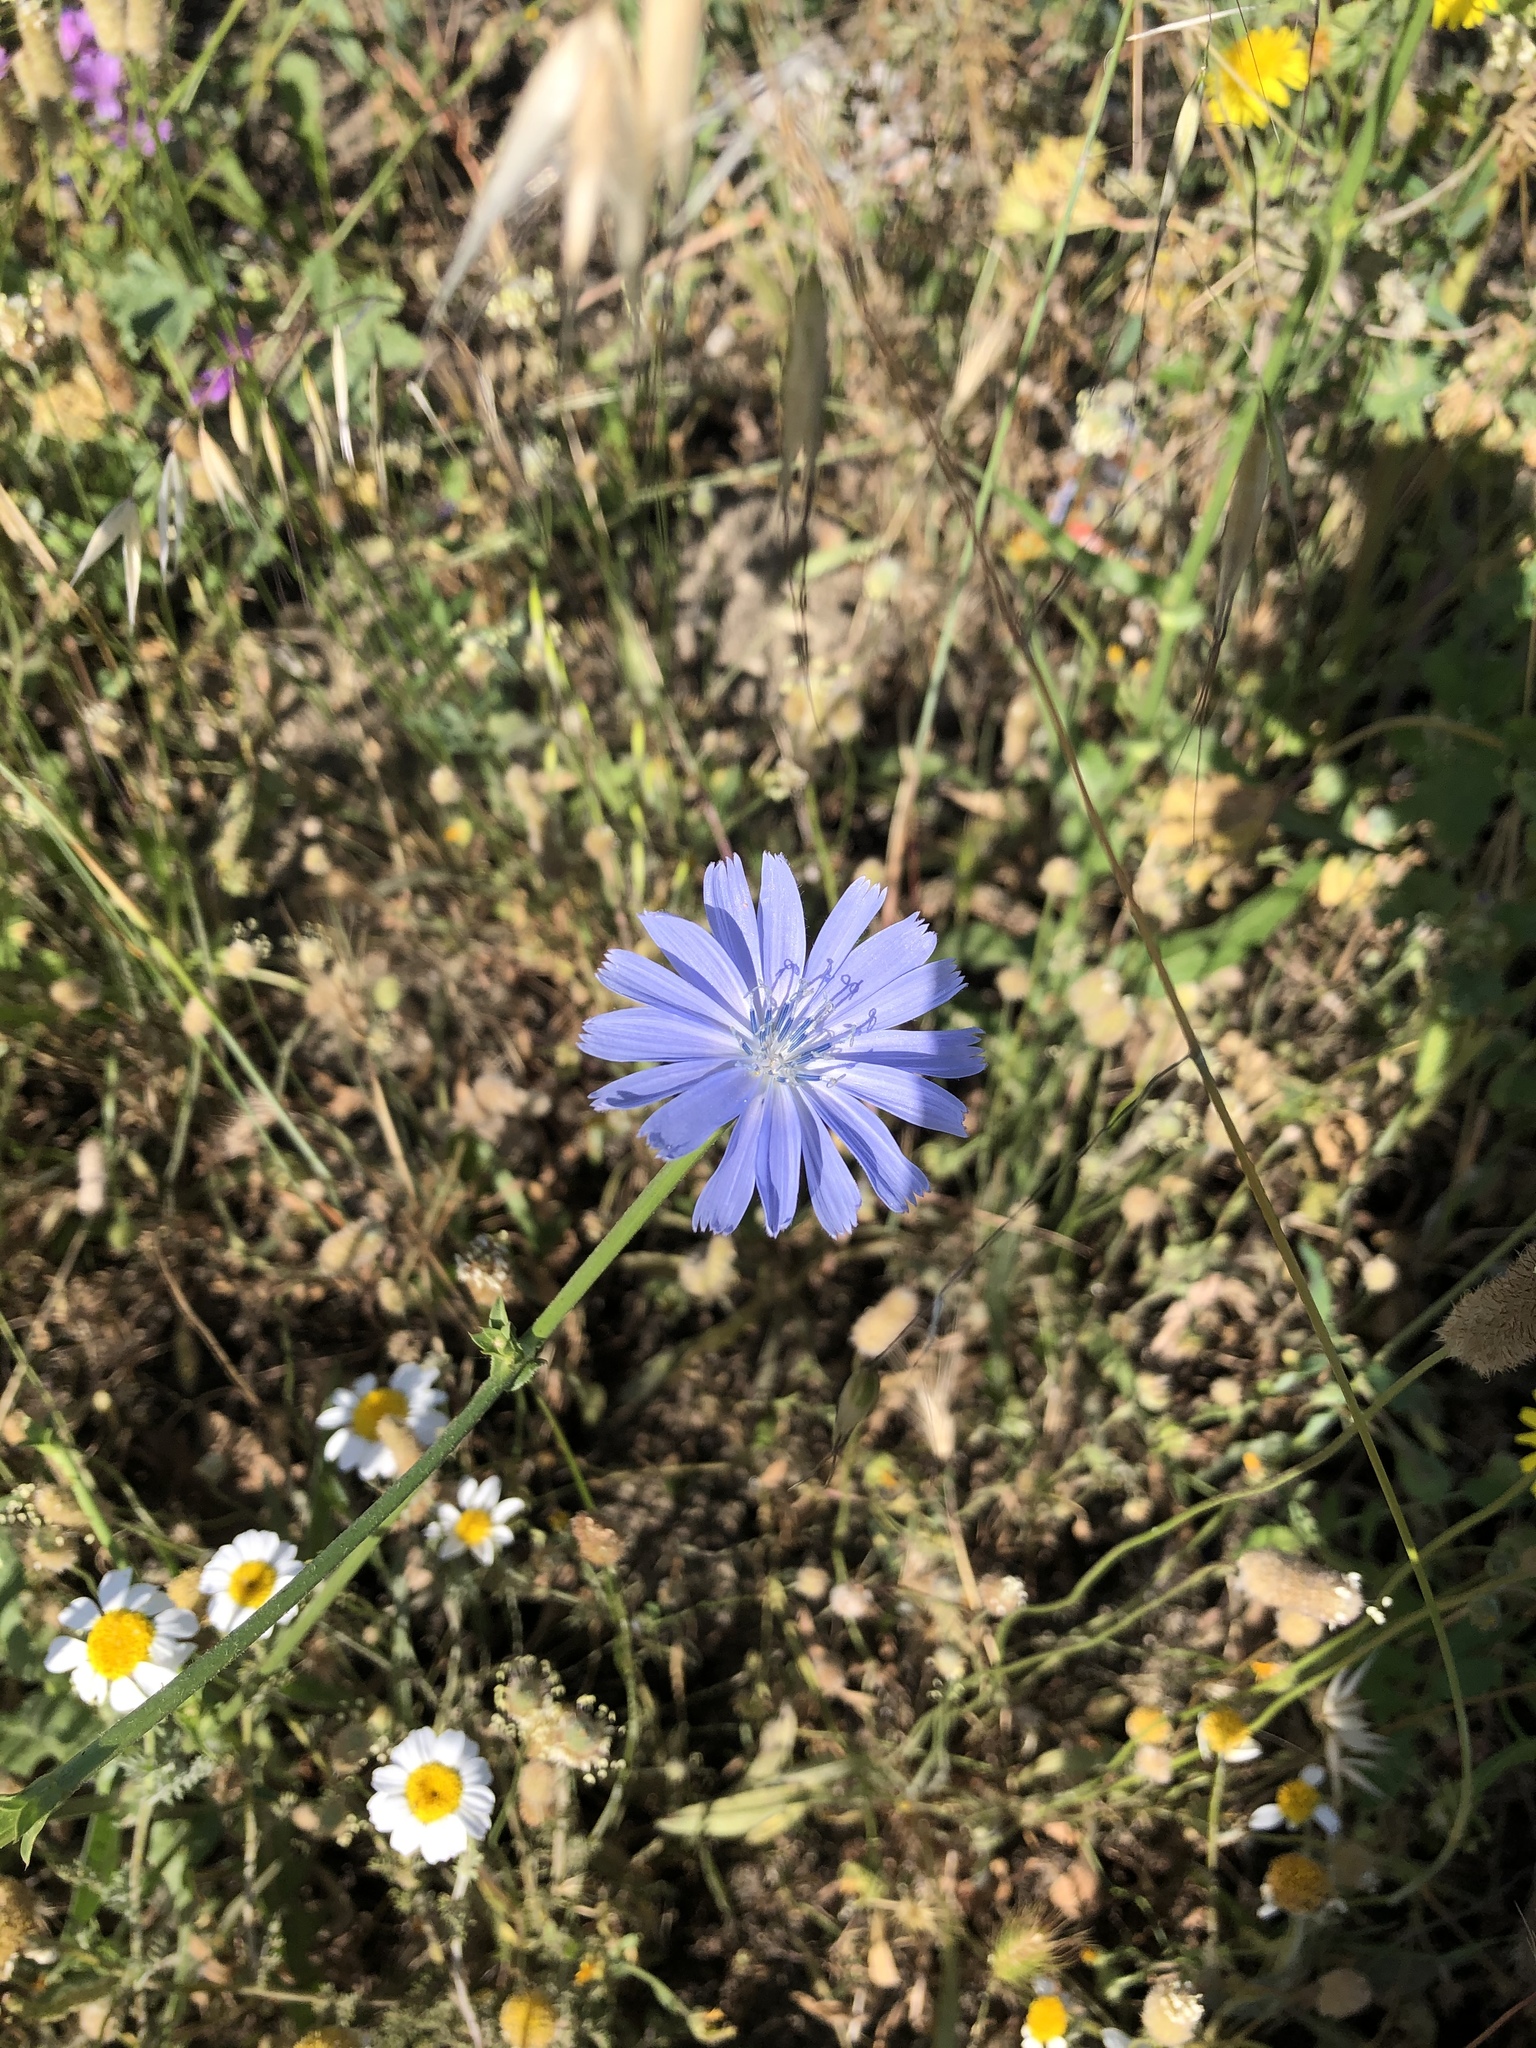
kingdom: Plantae
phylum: Tracheophyta
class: Magnoliopsida
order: Asterales
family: Asteraceae
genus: Cichorium
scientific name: Cichorium intybus
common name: Chicory
